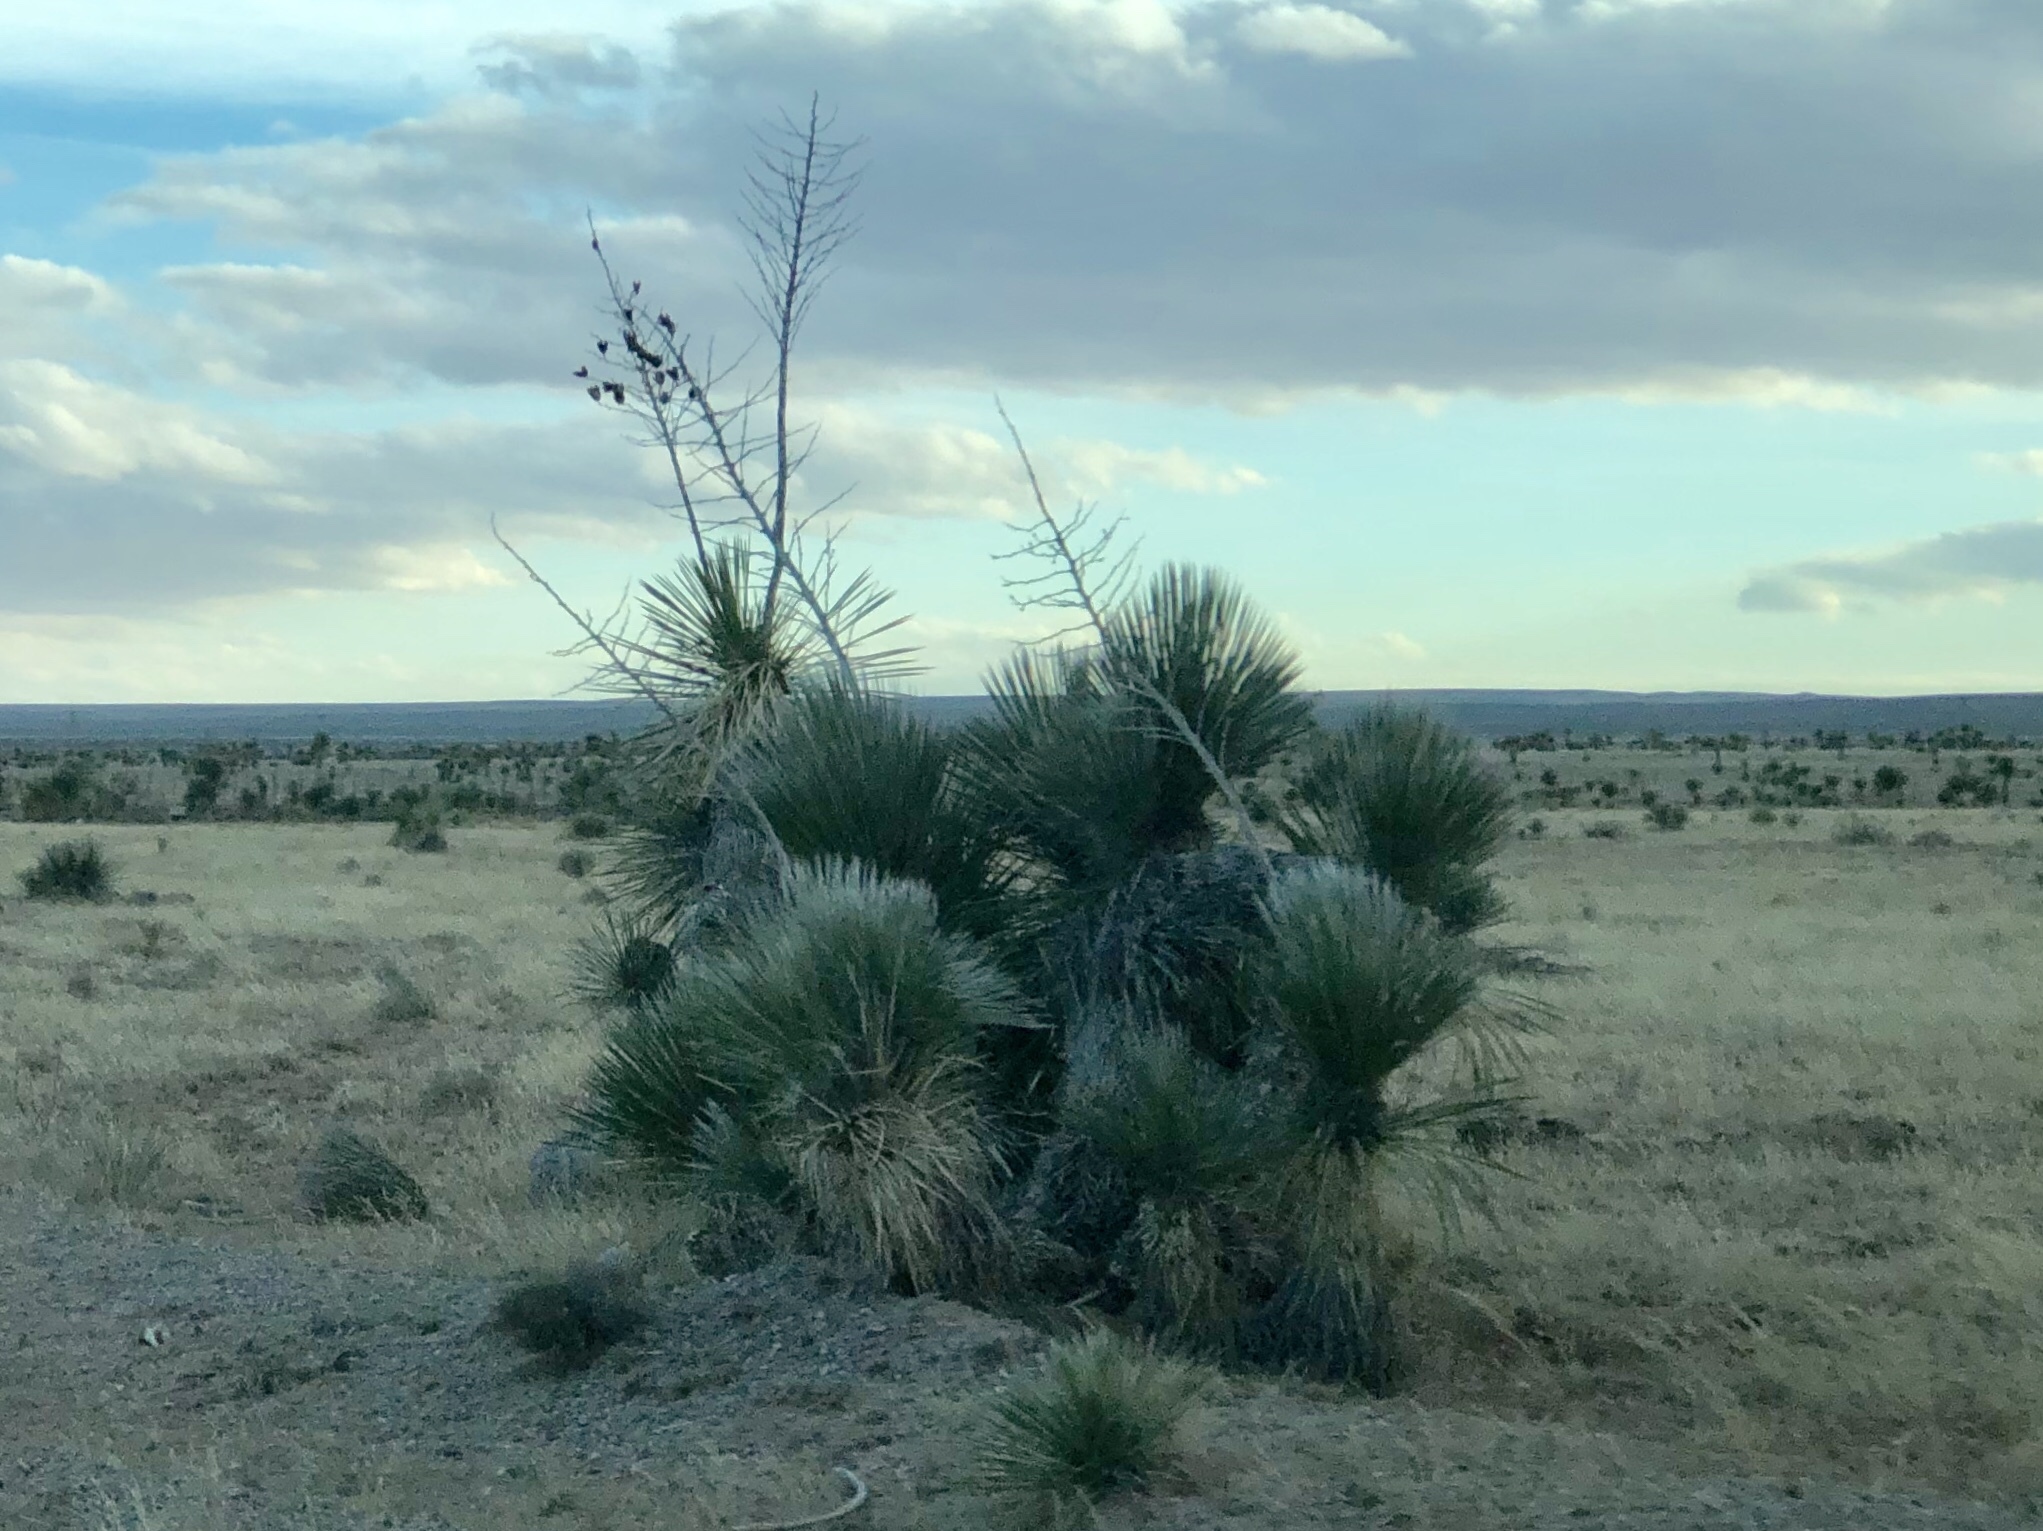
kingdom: Plantae
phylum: Tracheophyta
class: Liliopsida
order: Asparagales
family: Asparagaceae
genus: Yucca
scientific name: Yucca elata
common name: Palmella
